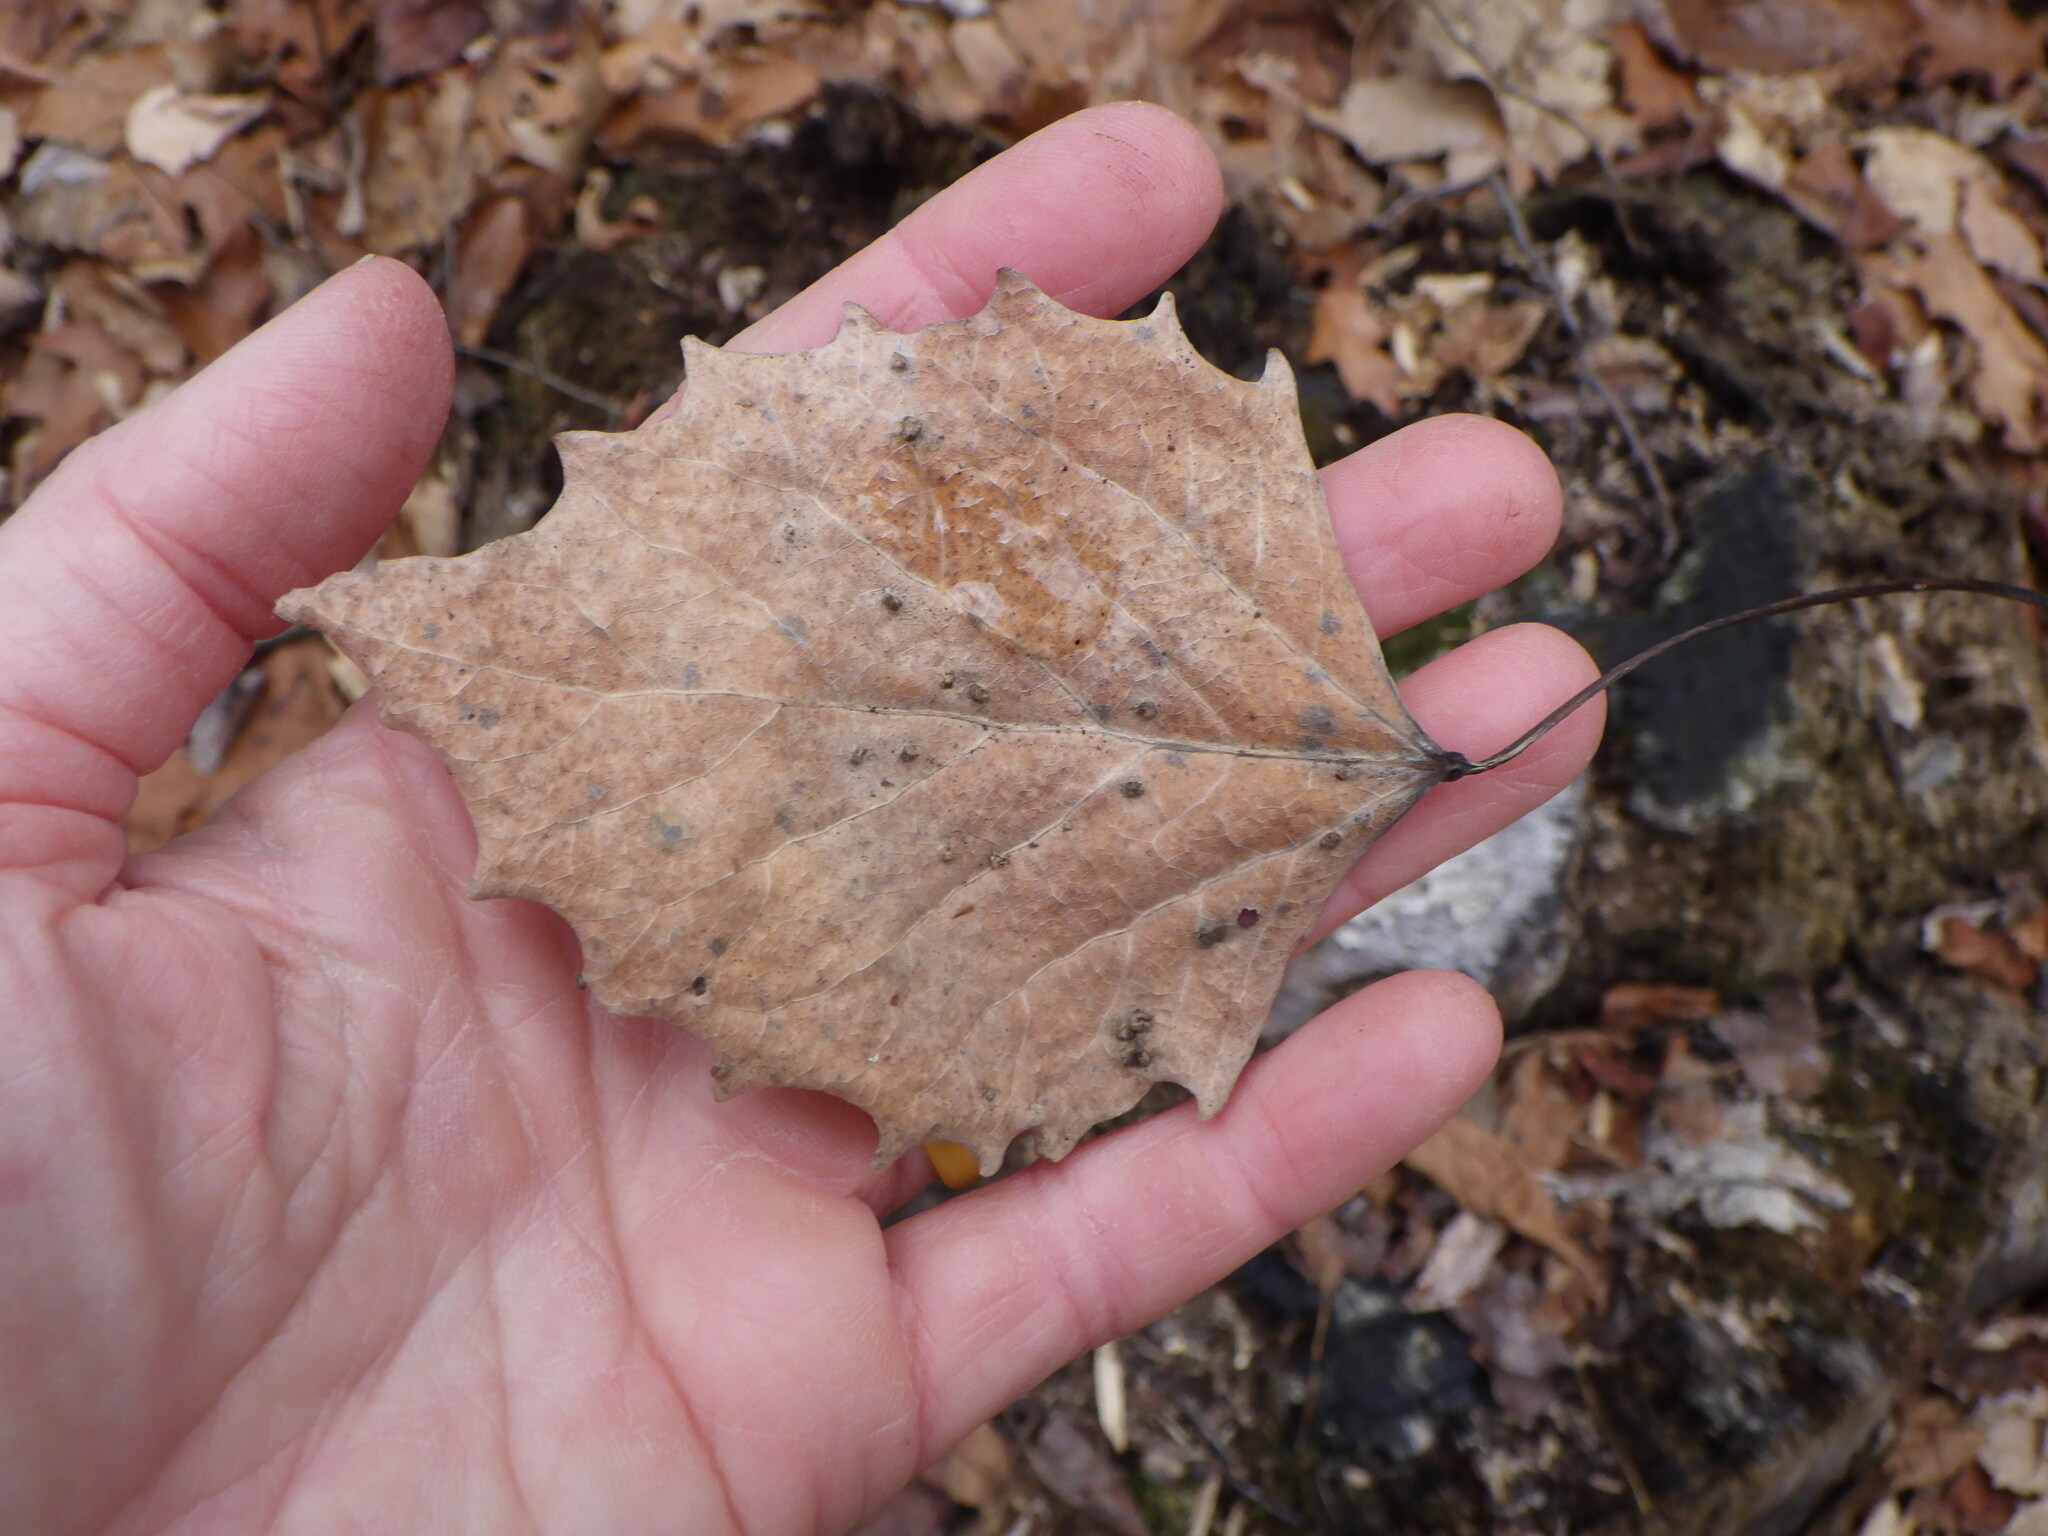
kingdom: Plantae
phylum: Tracheophyta
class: Magnoliopsida
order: Malpighiales
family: Salicaceae
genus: Populus
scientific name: Populus grandidentata
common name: Bigtooth aspen
